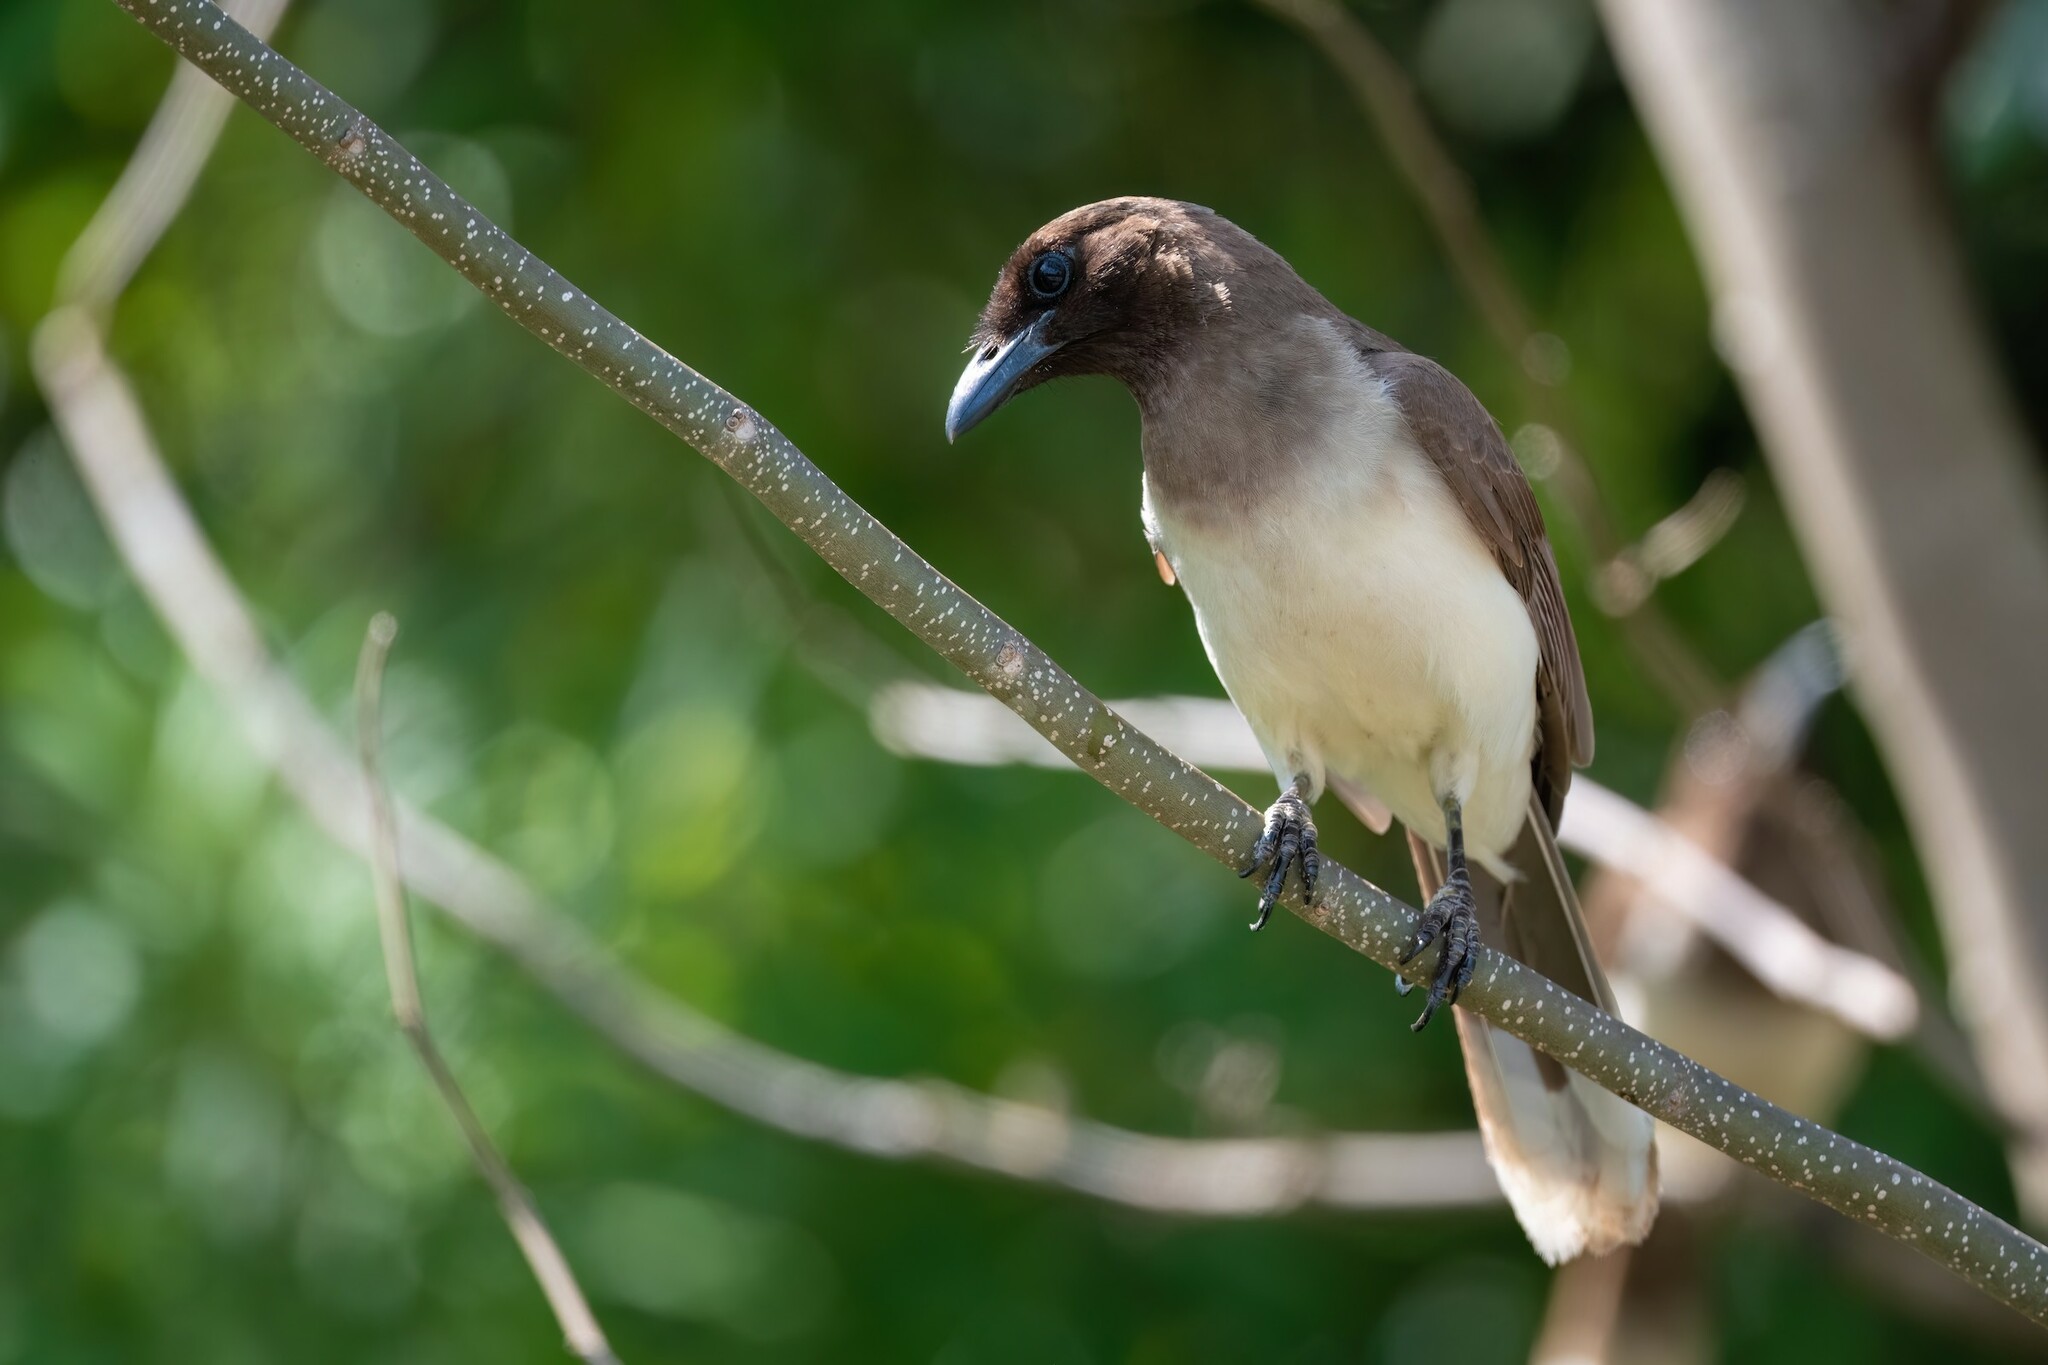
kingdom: Animalia
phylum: Chordata
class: Aves
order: Passeriformes
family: Corvidae
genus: Psilorhinus
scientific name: Psilorhinus morio
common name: Brown jay
